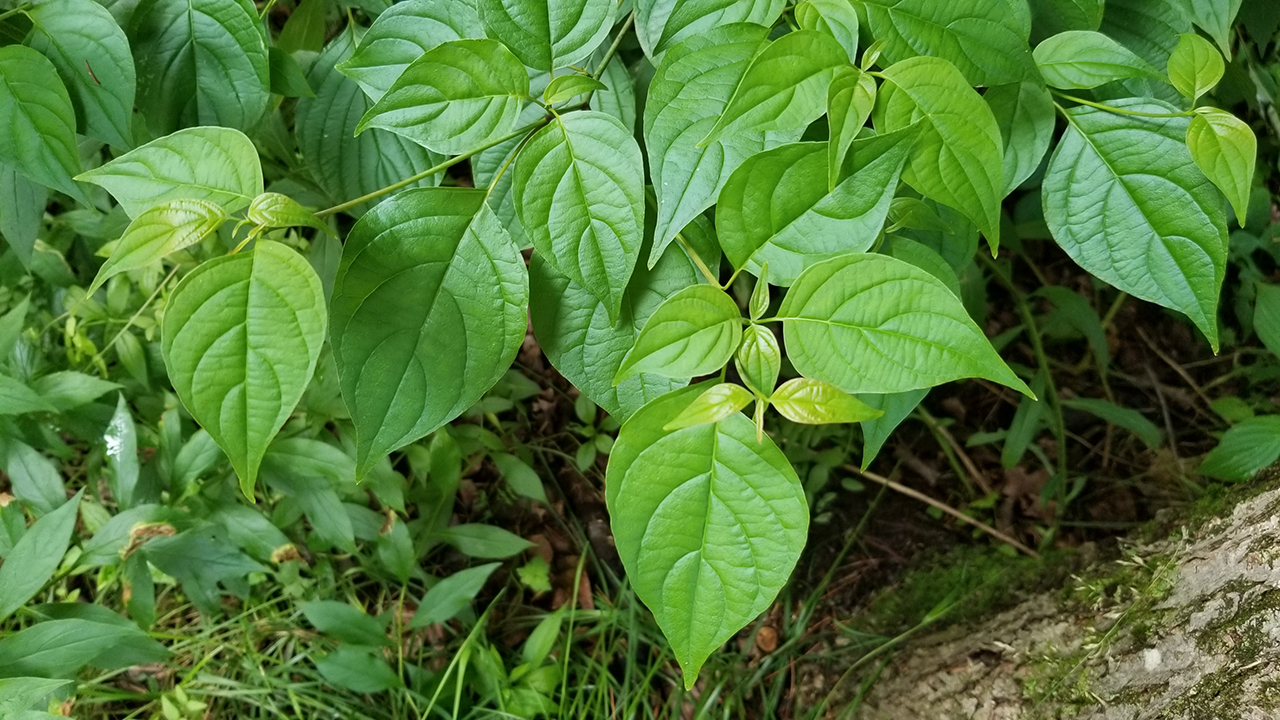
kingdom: Plantae
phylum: Tracheophyta
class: Magnoliopsida
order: Cornales
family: Cornaceae
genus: Cornus
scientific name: Cornus alternifolia
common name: Pagoda dogwood
